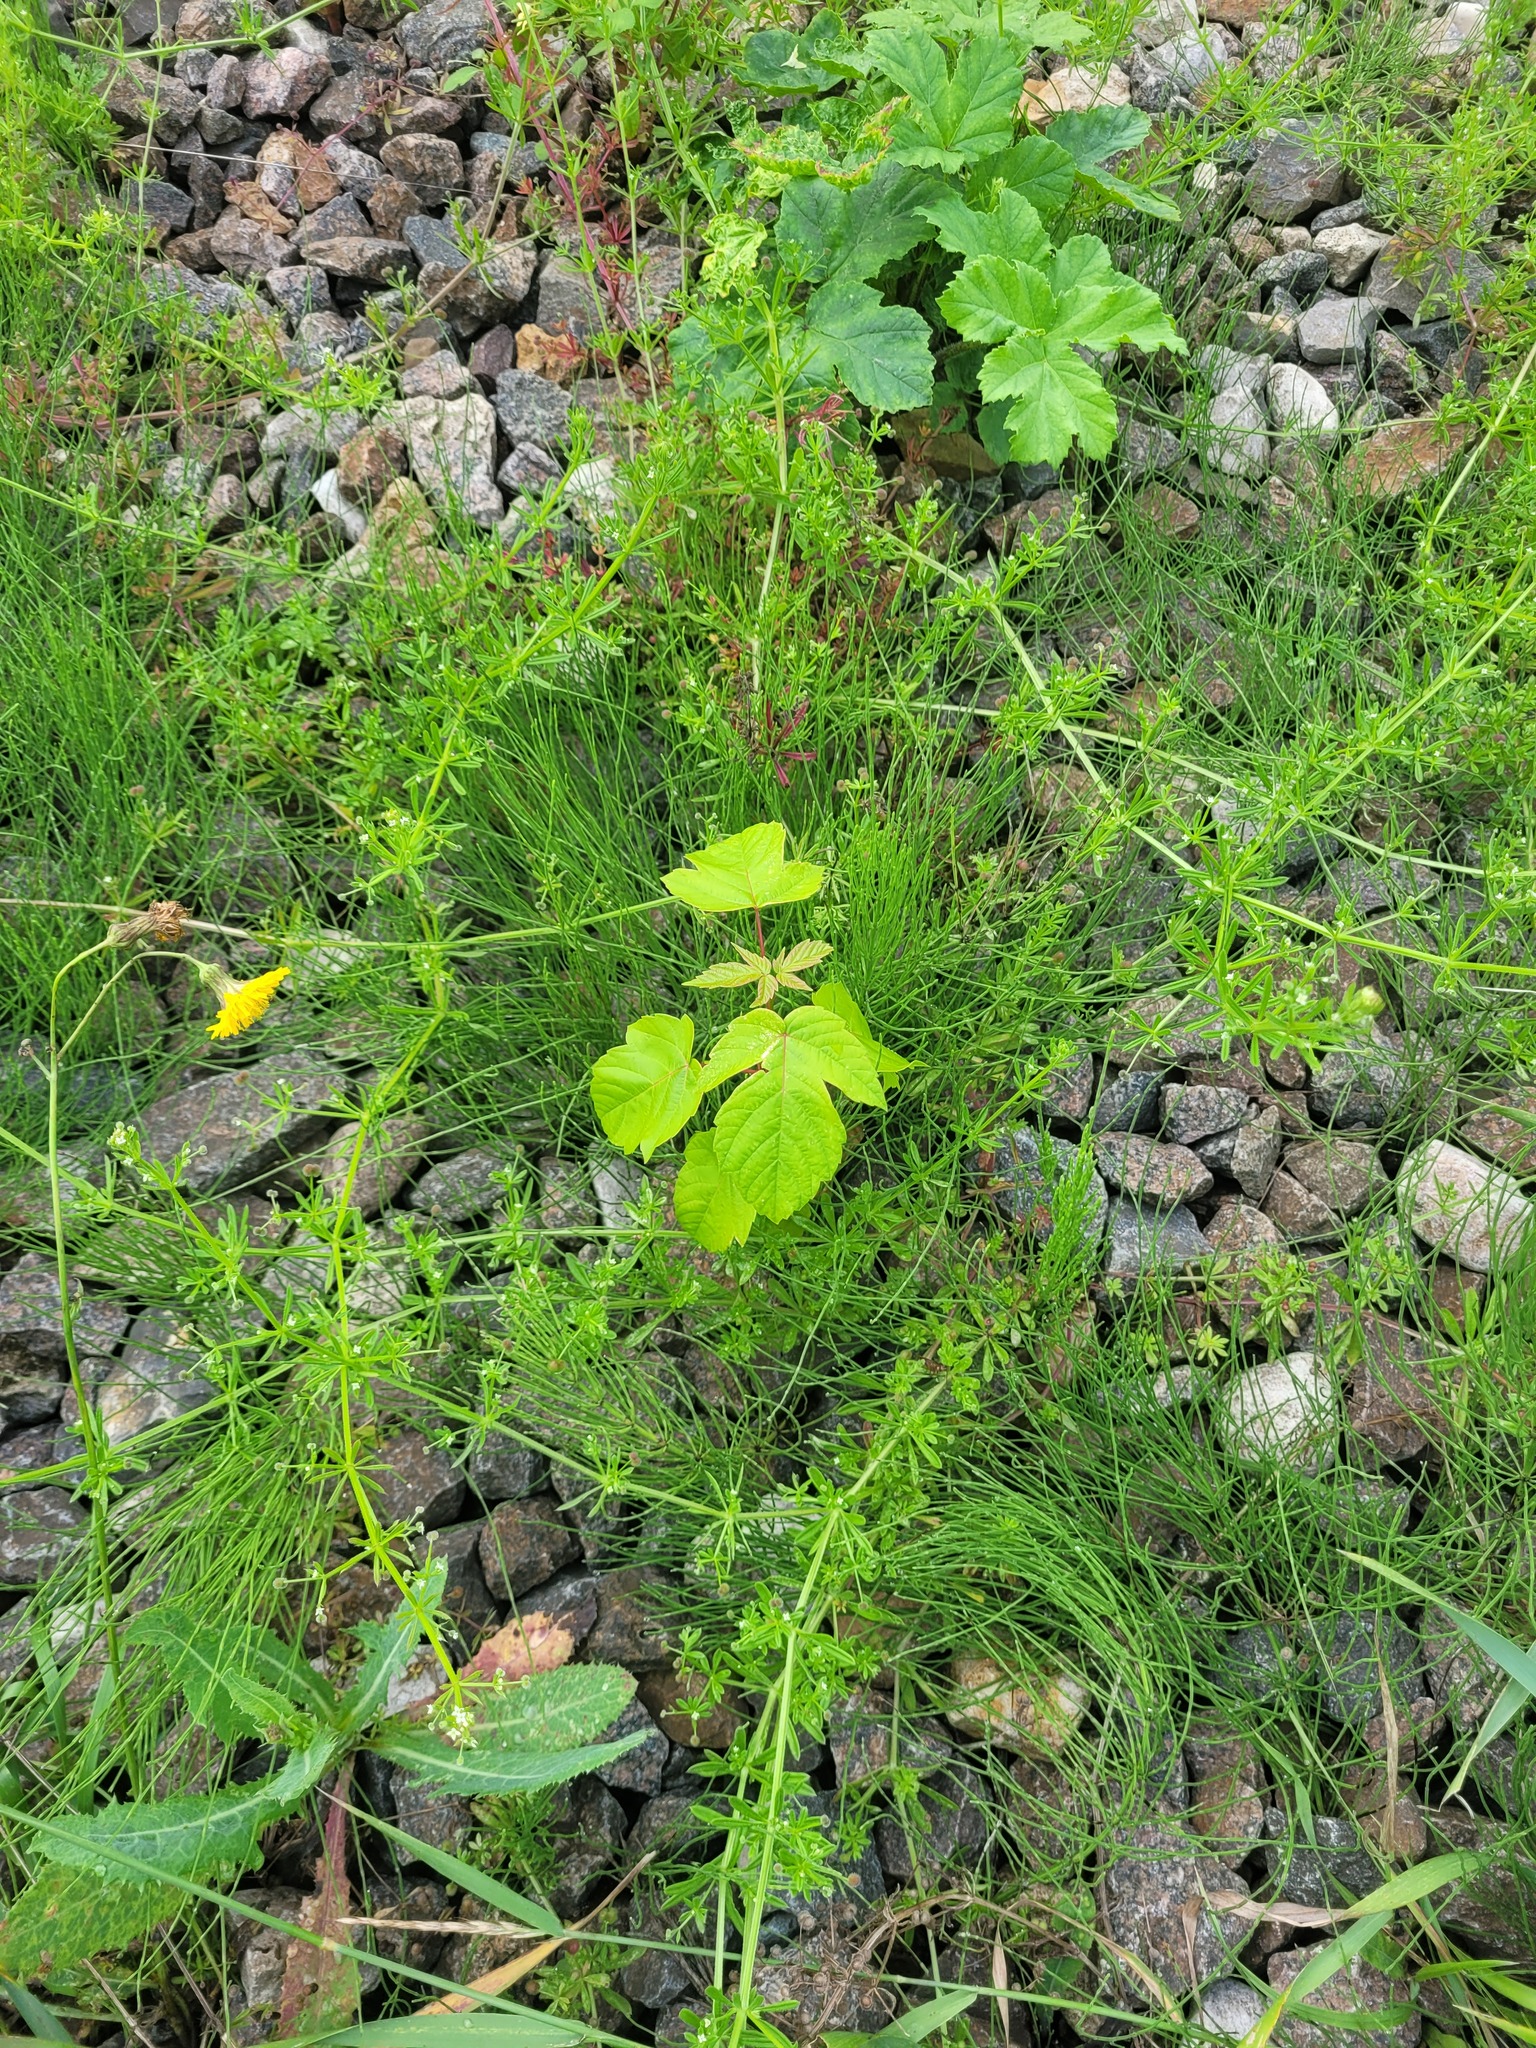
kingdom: Plantae
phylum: Tracheophyta
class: Magnoliopsida
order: Sapindales
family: Sapindaceae
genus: Acer
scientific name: Acer negundo
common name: Ashleaf maple
